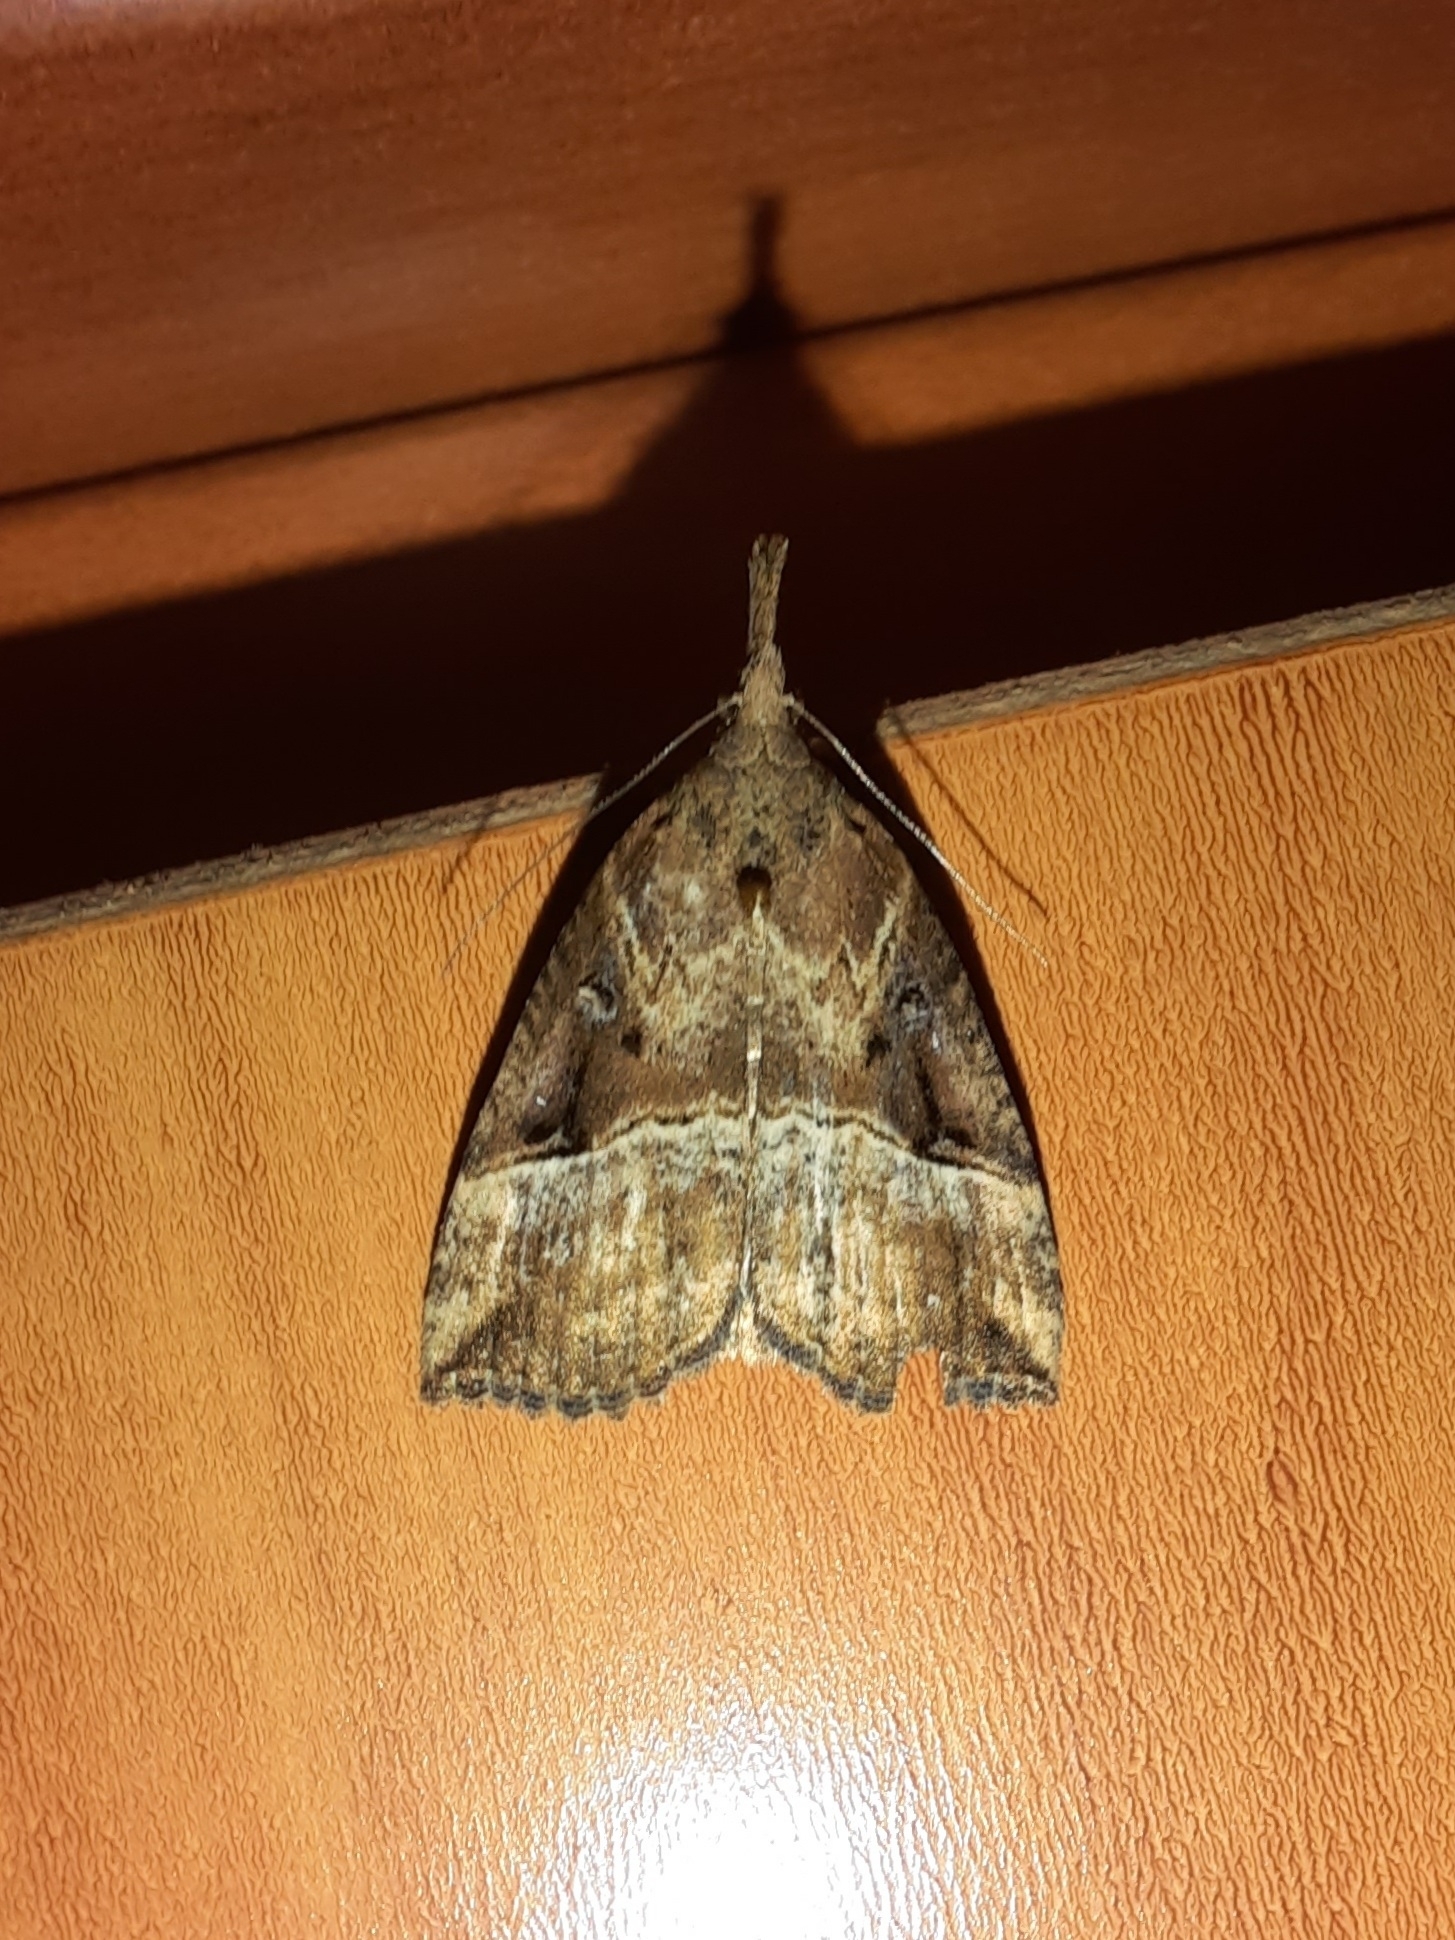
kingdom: Animalia
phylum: Arthropoda
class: Insecta
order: Lepidoptera
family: Erebidae
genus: Hypena
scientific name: Hypena rostralis
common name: Buttoned snout
